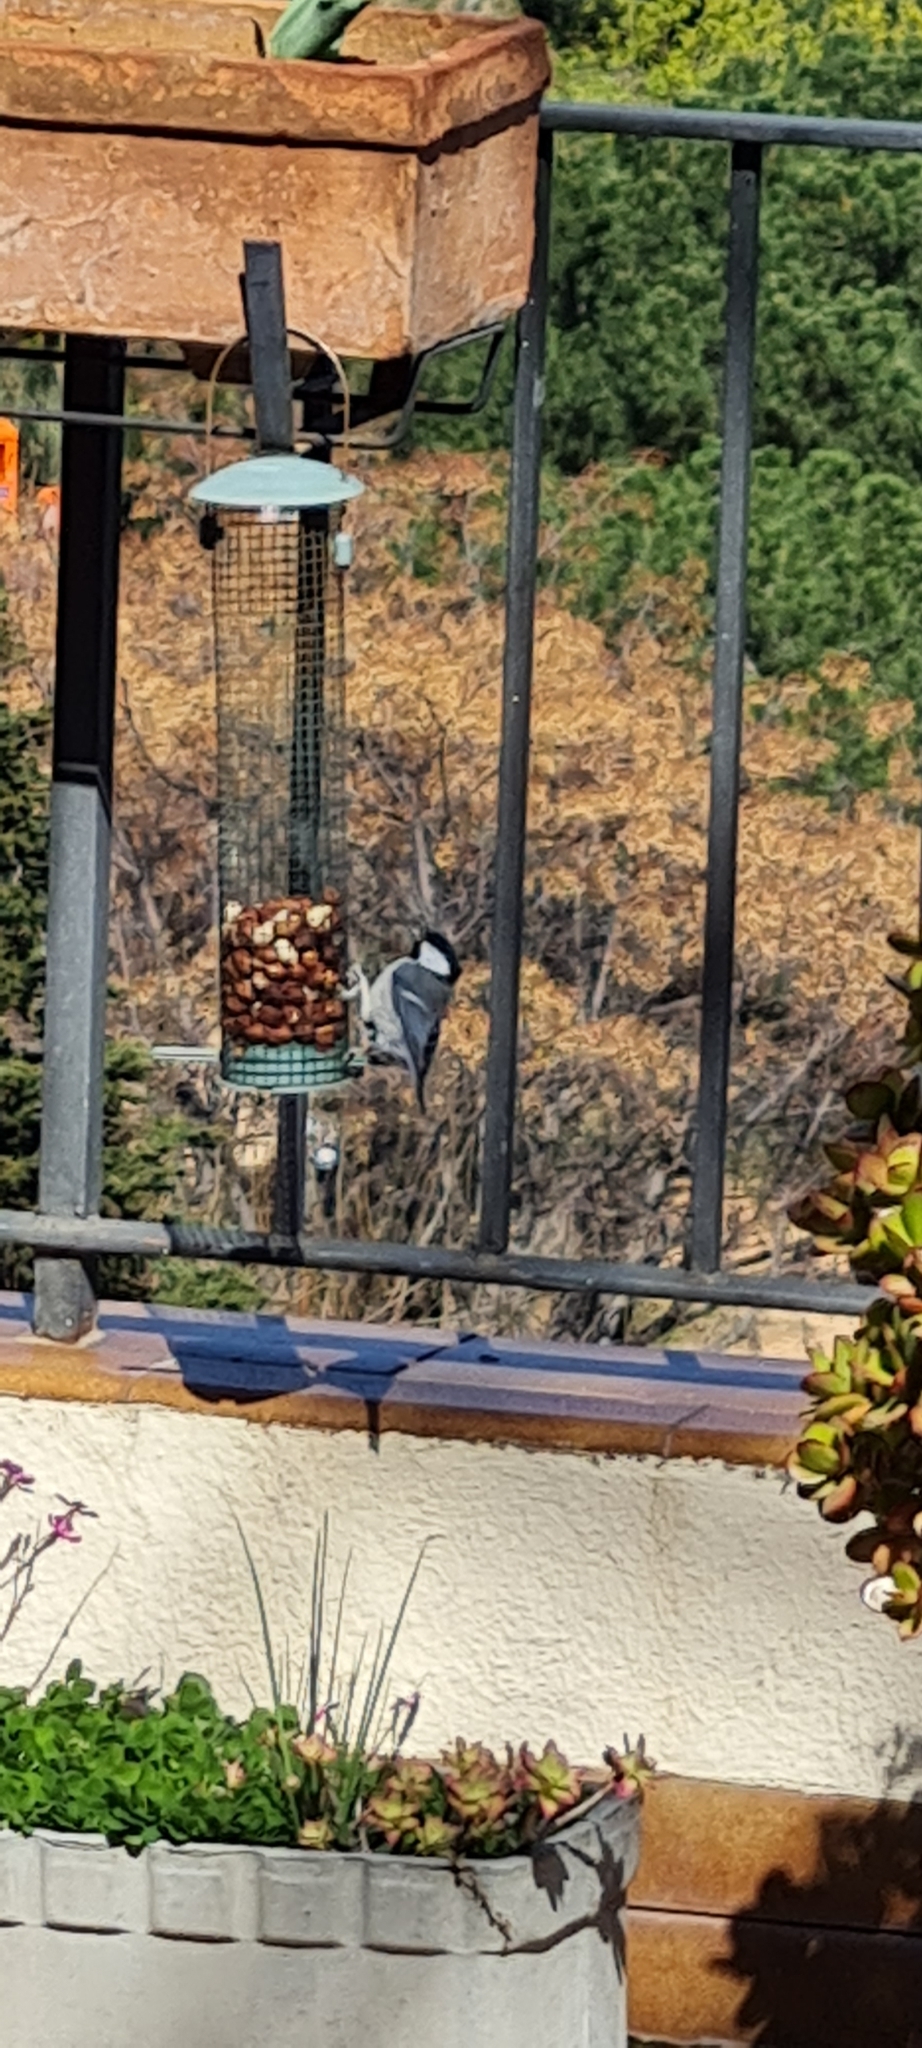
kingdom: Animalia
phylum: Chordata
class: Aves
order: Passeriformes
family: Paridae
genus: Periparus
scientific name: Periparus ater
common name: Coal tit
